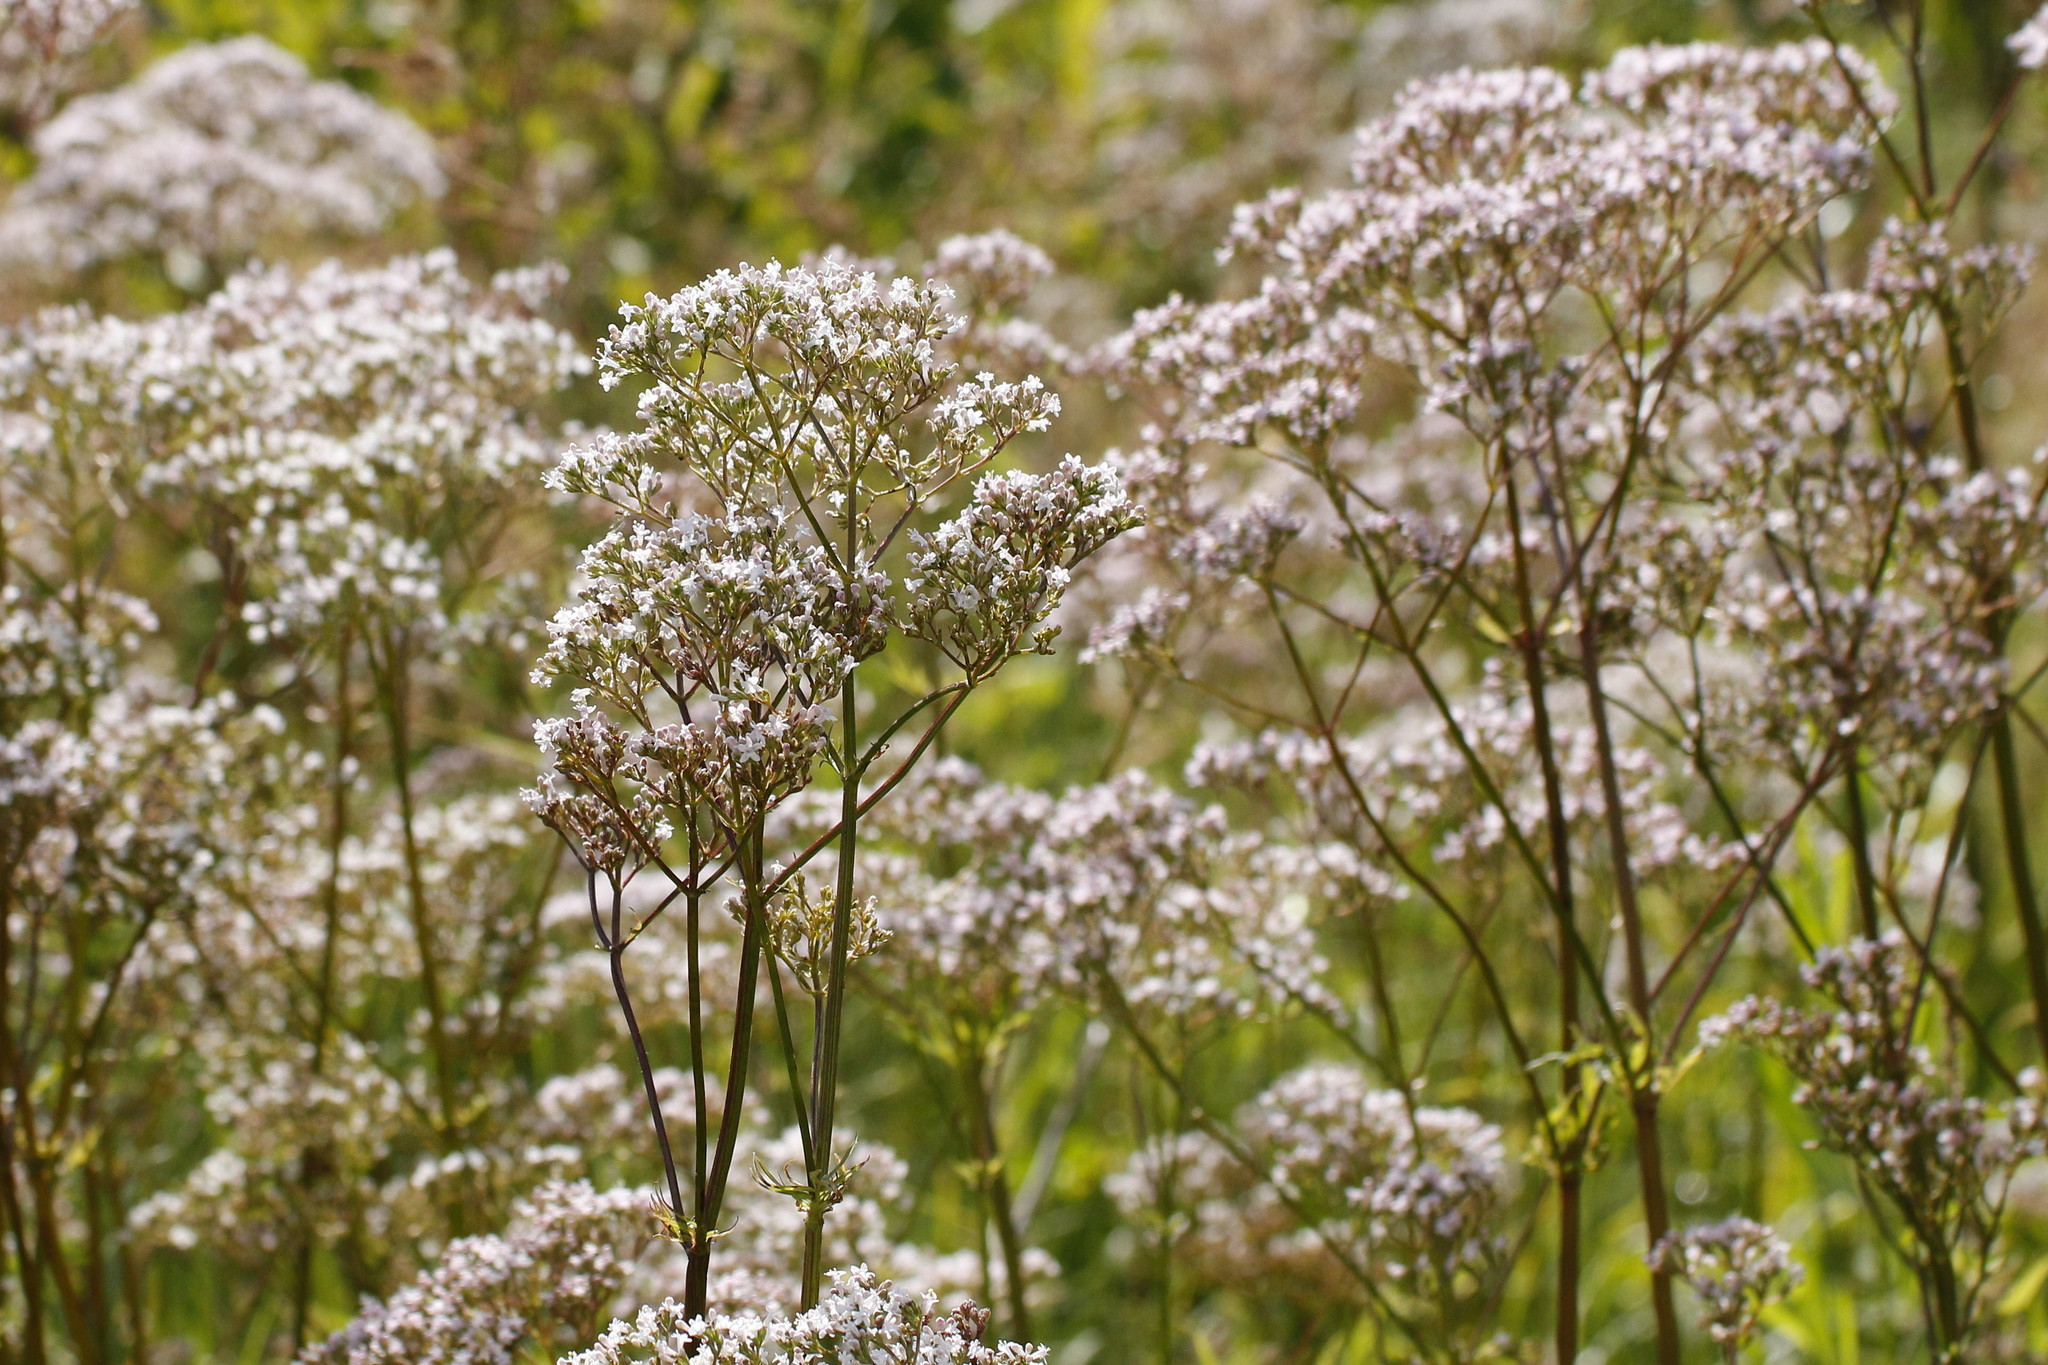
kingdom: Plantae
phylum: Tracheophyta
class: Magnoliopsida
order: Dipsacales
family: Caprifoliaceae
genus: Valeriana
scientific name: Valeriana officinalis
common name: Common valerian
